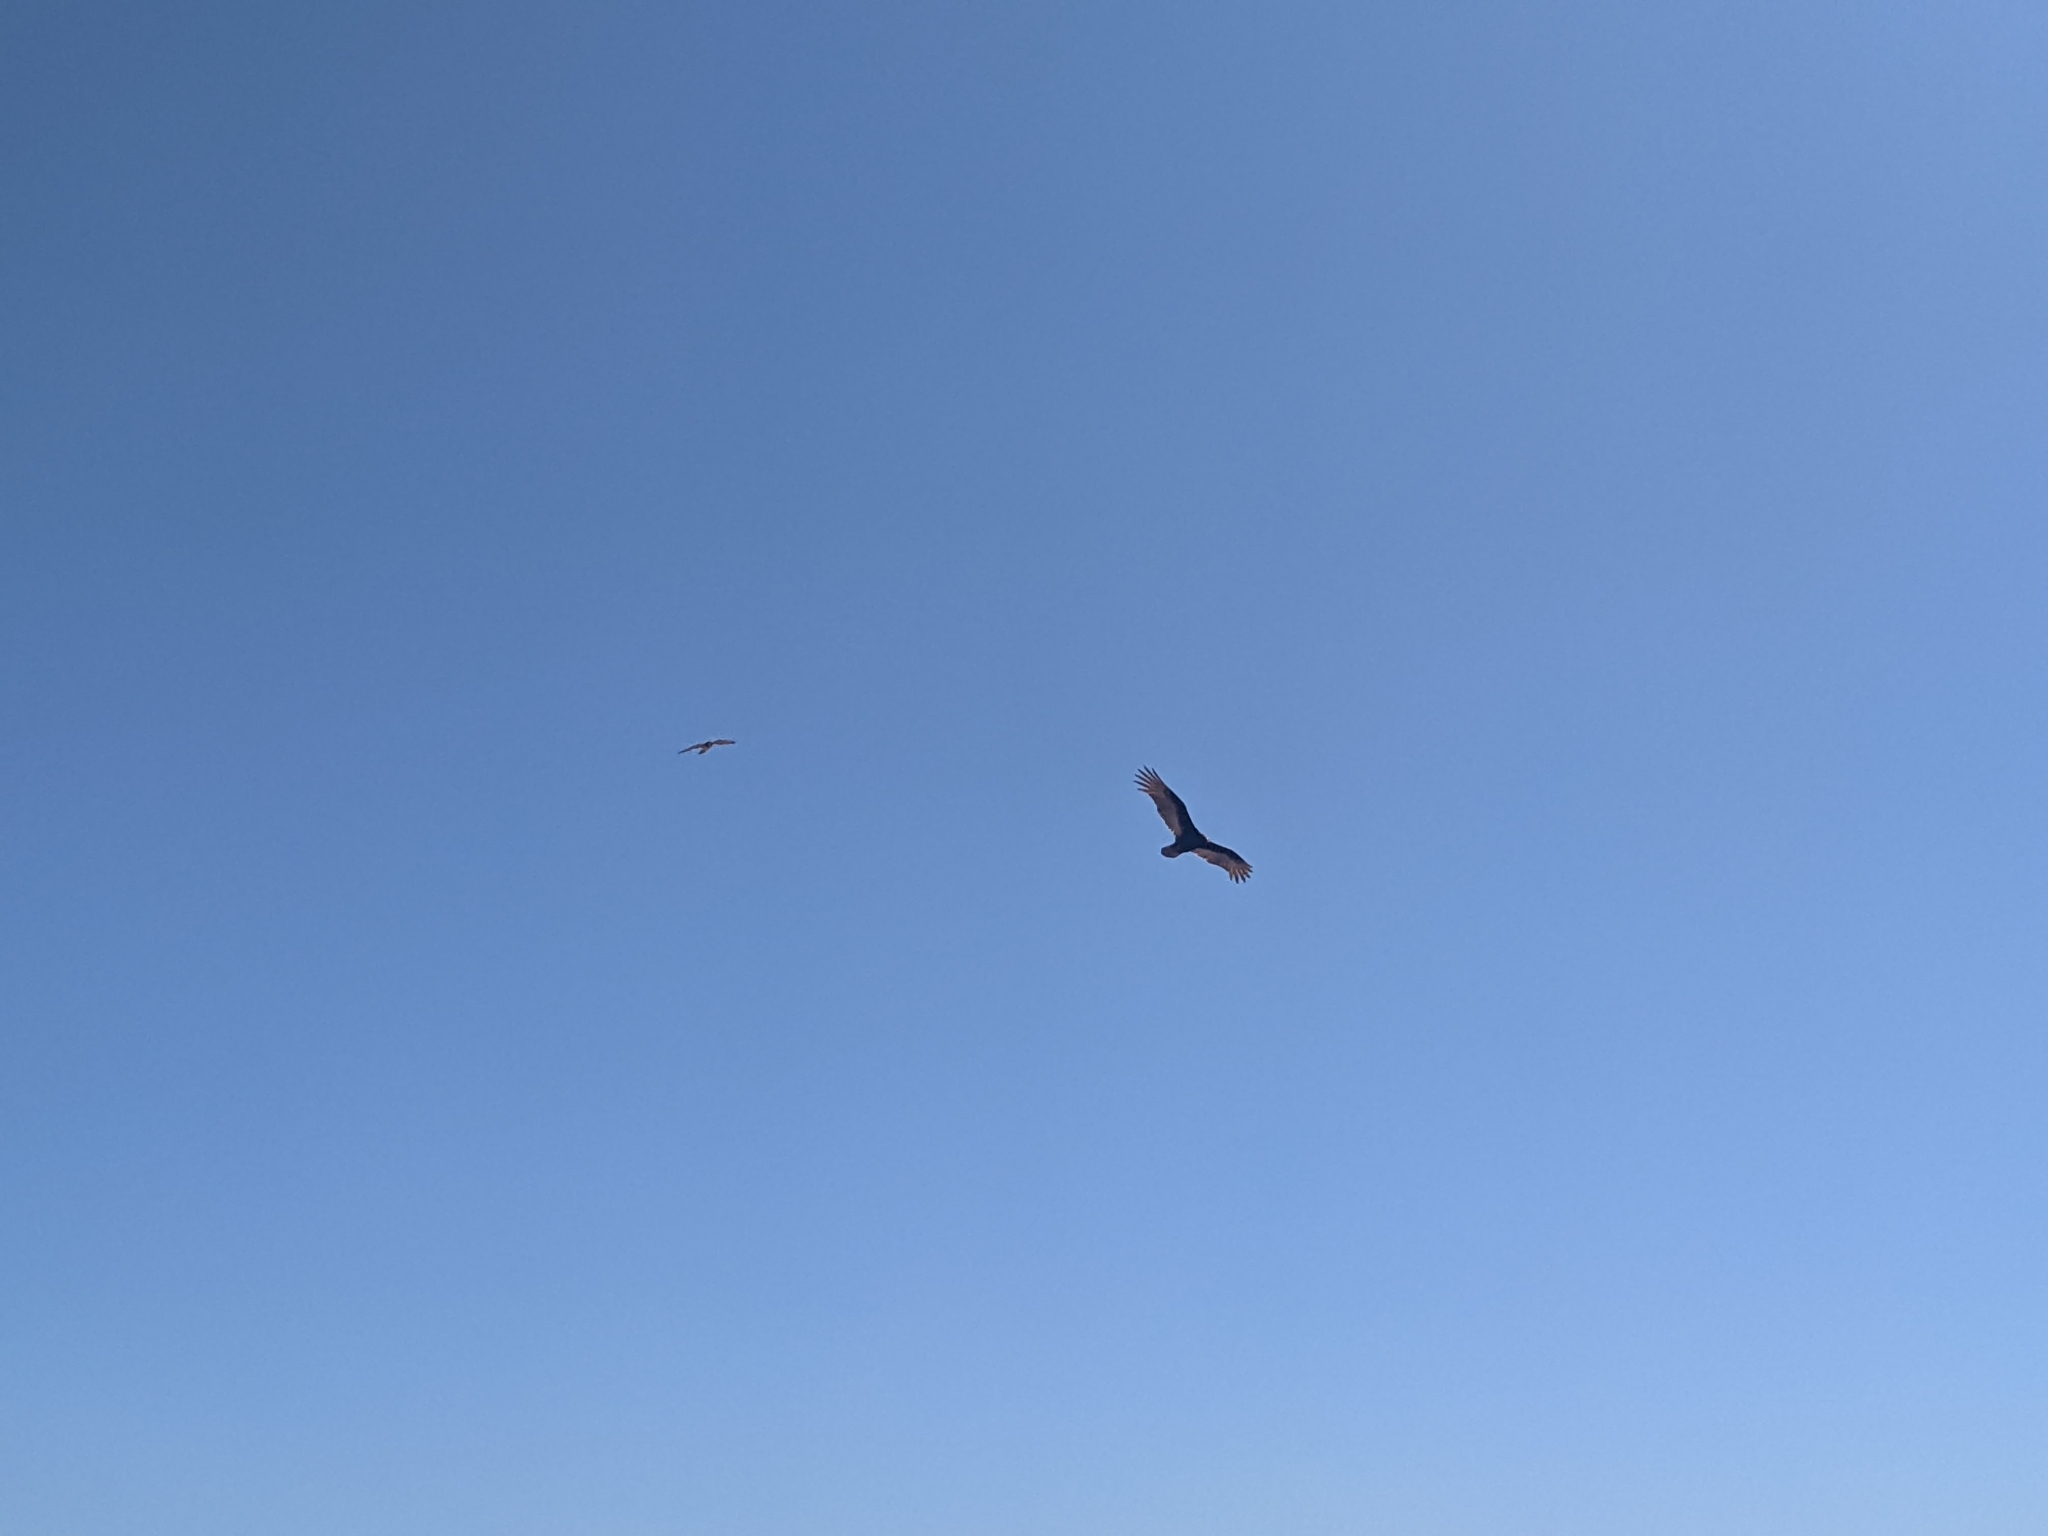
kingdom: Animalia
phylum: Chordata
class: Aves
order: Accipitriformes
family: Cathartidae
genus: Cathartes
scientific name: Cathartes aura
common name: Turkey vulture
